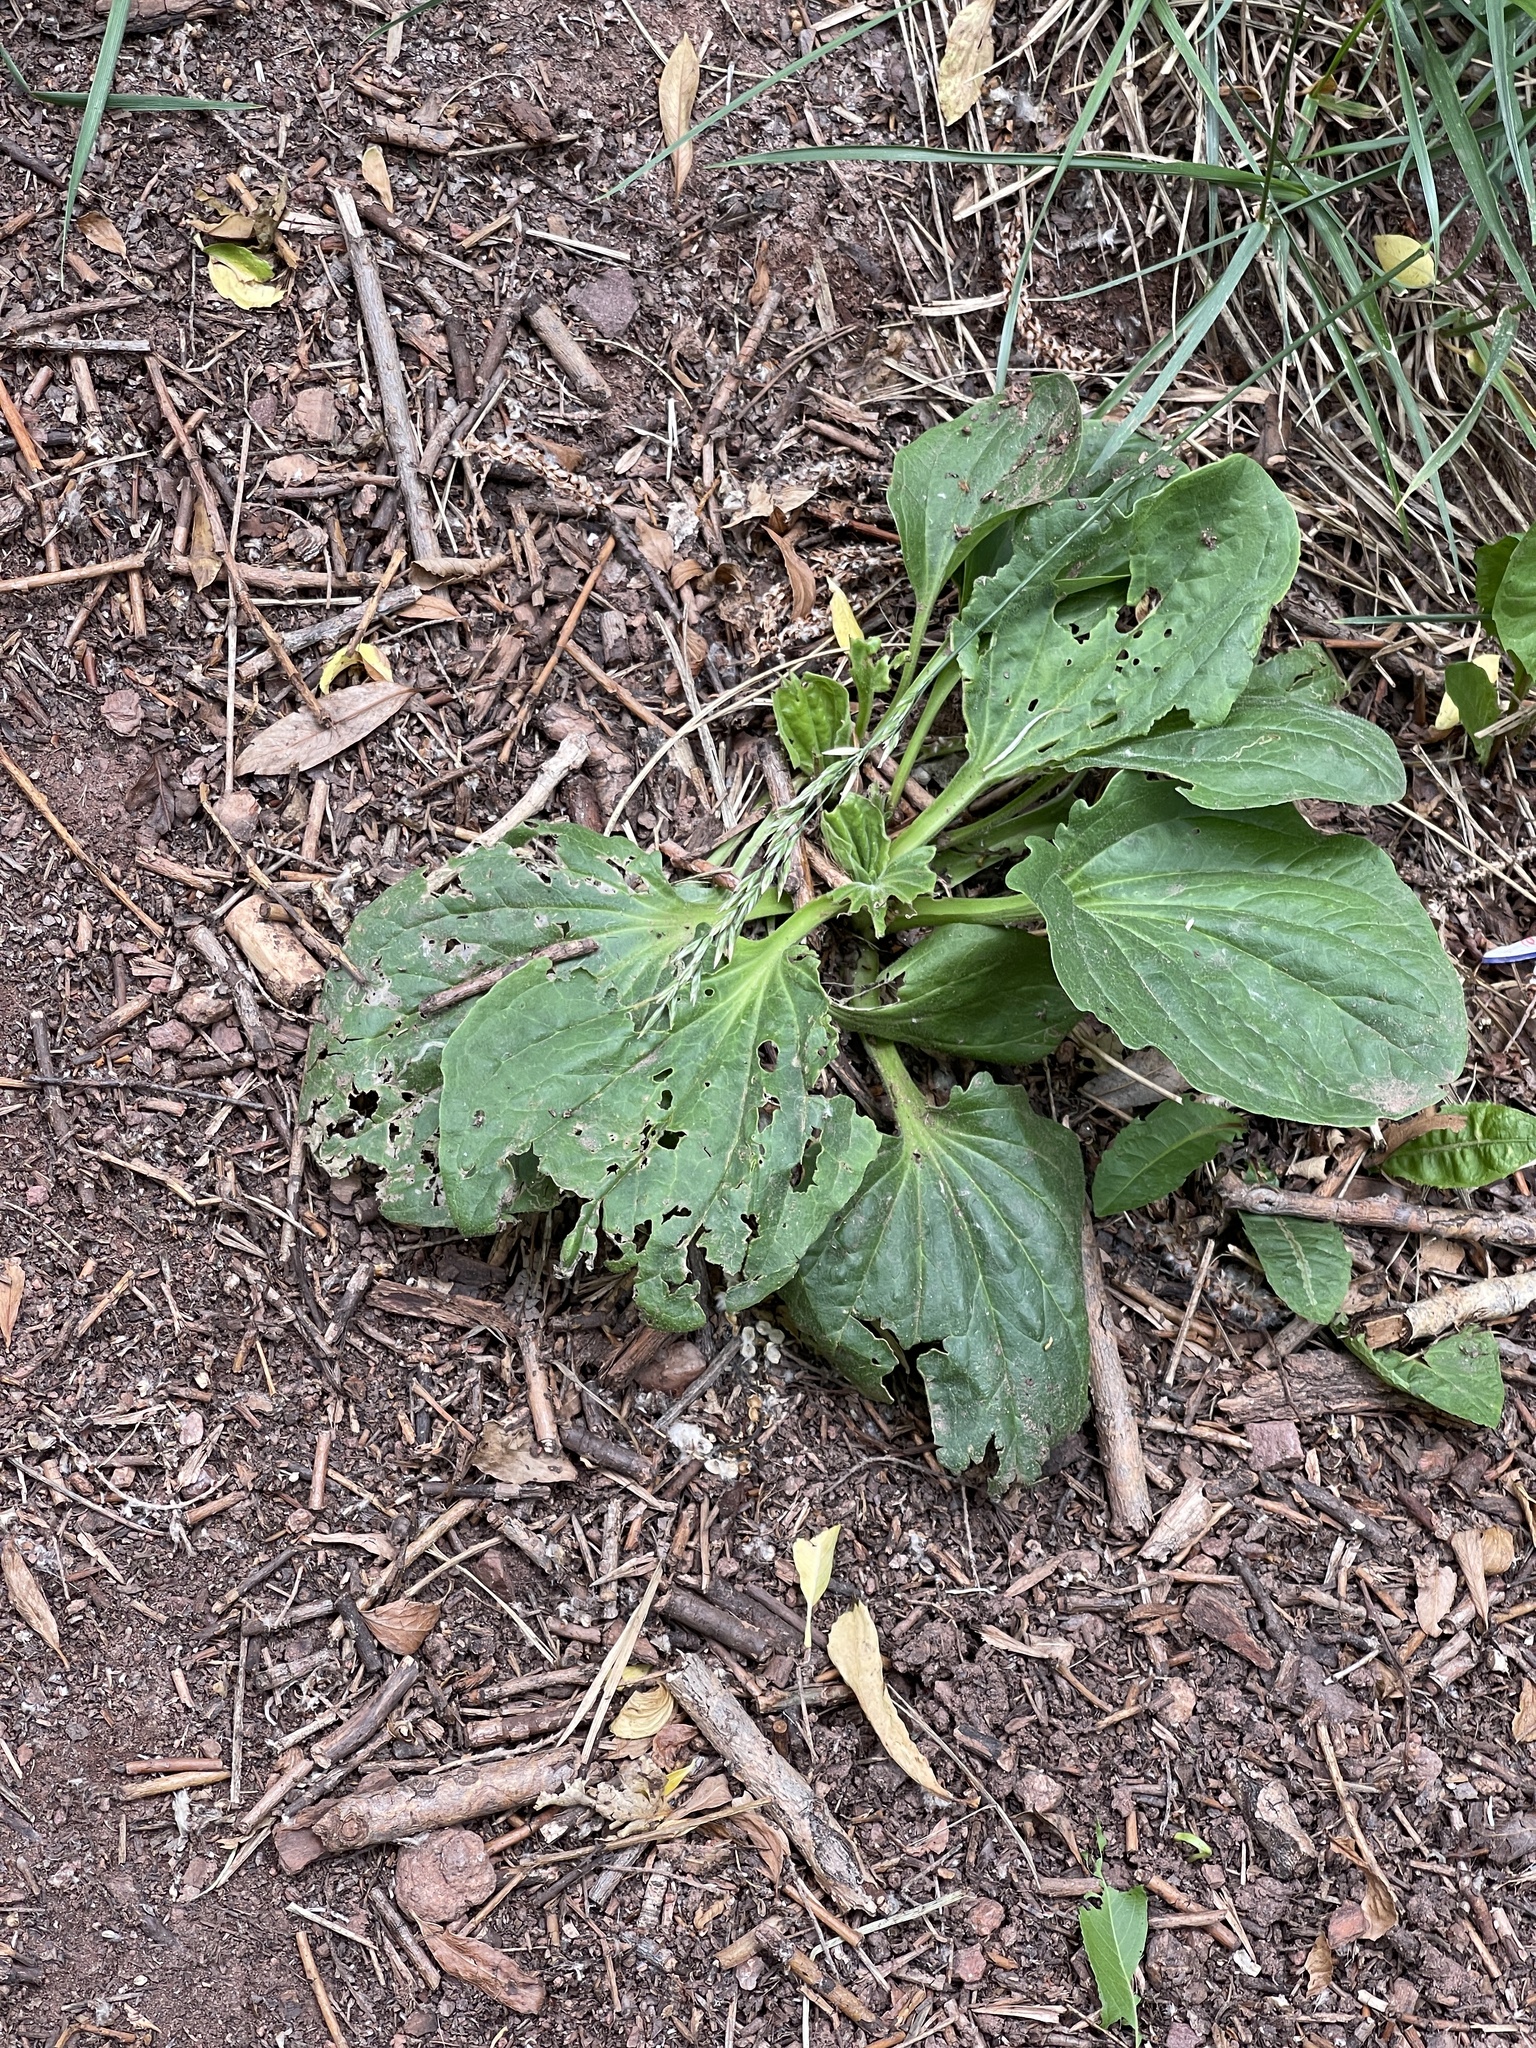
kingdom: Plantae
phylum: Tracheophyta
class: Magnoliopsida
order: Lamiales
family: Plantaginaceae
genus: Plantago
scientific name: Plantago major
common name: Common plantain
